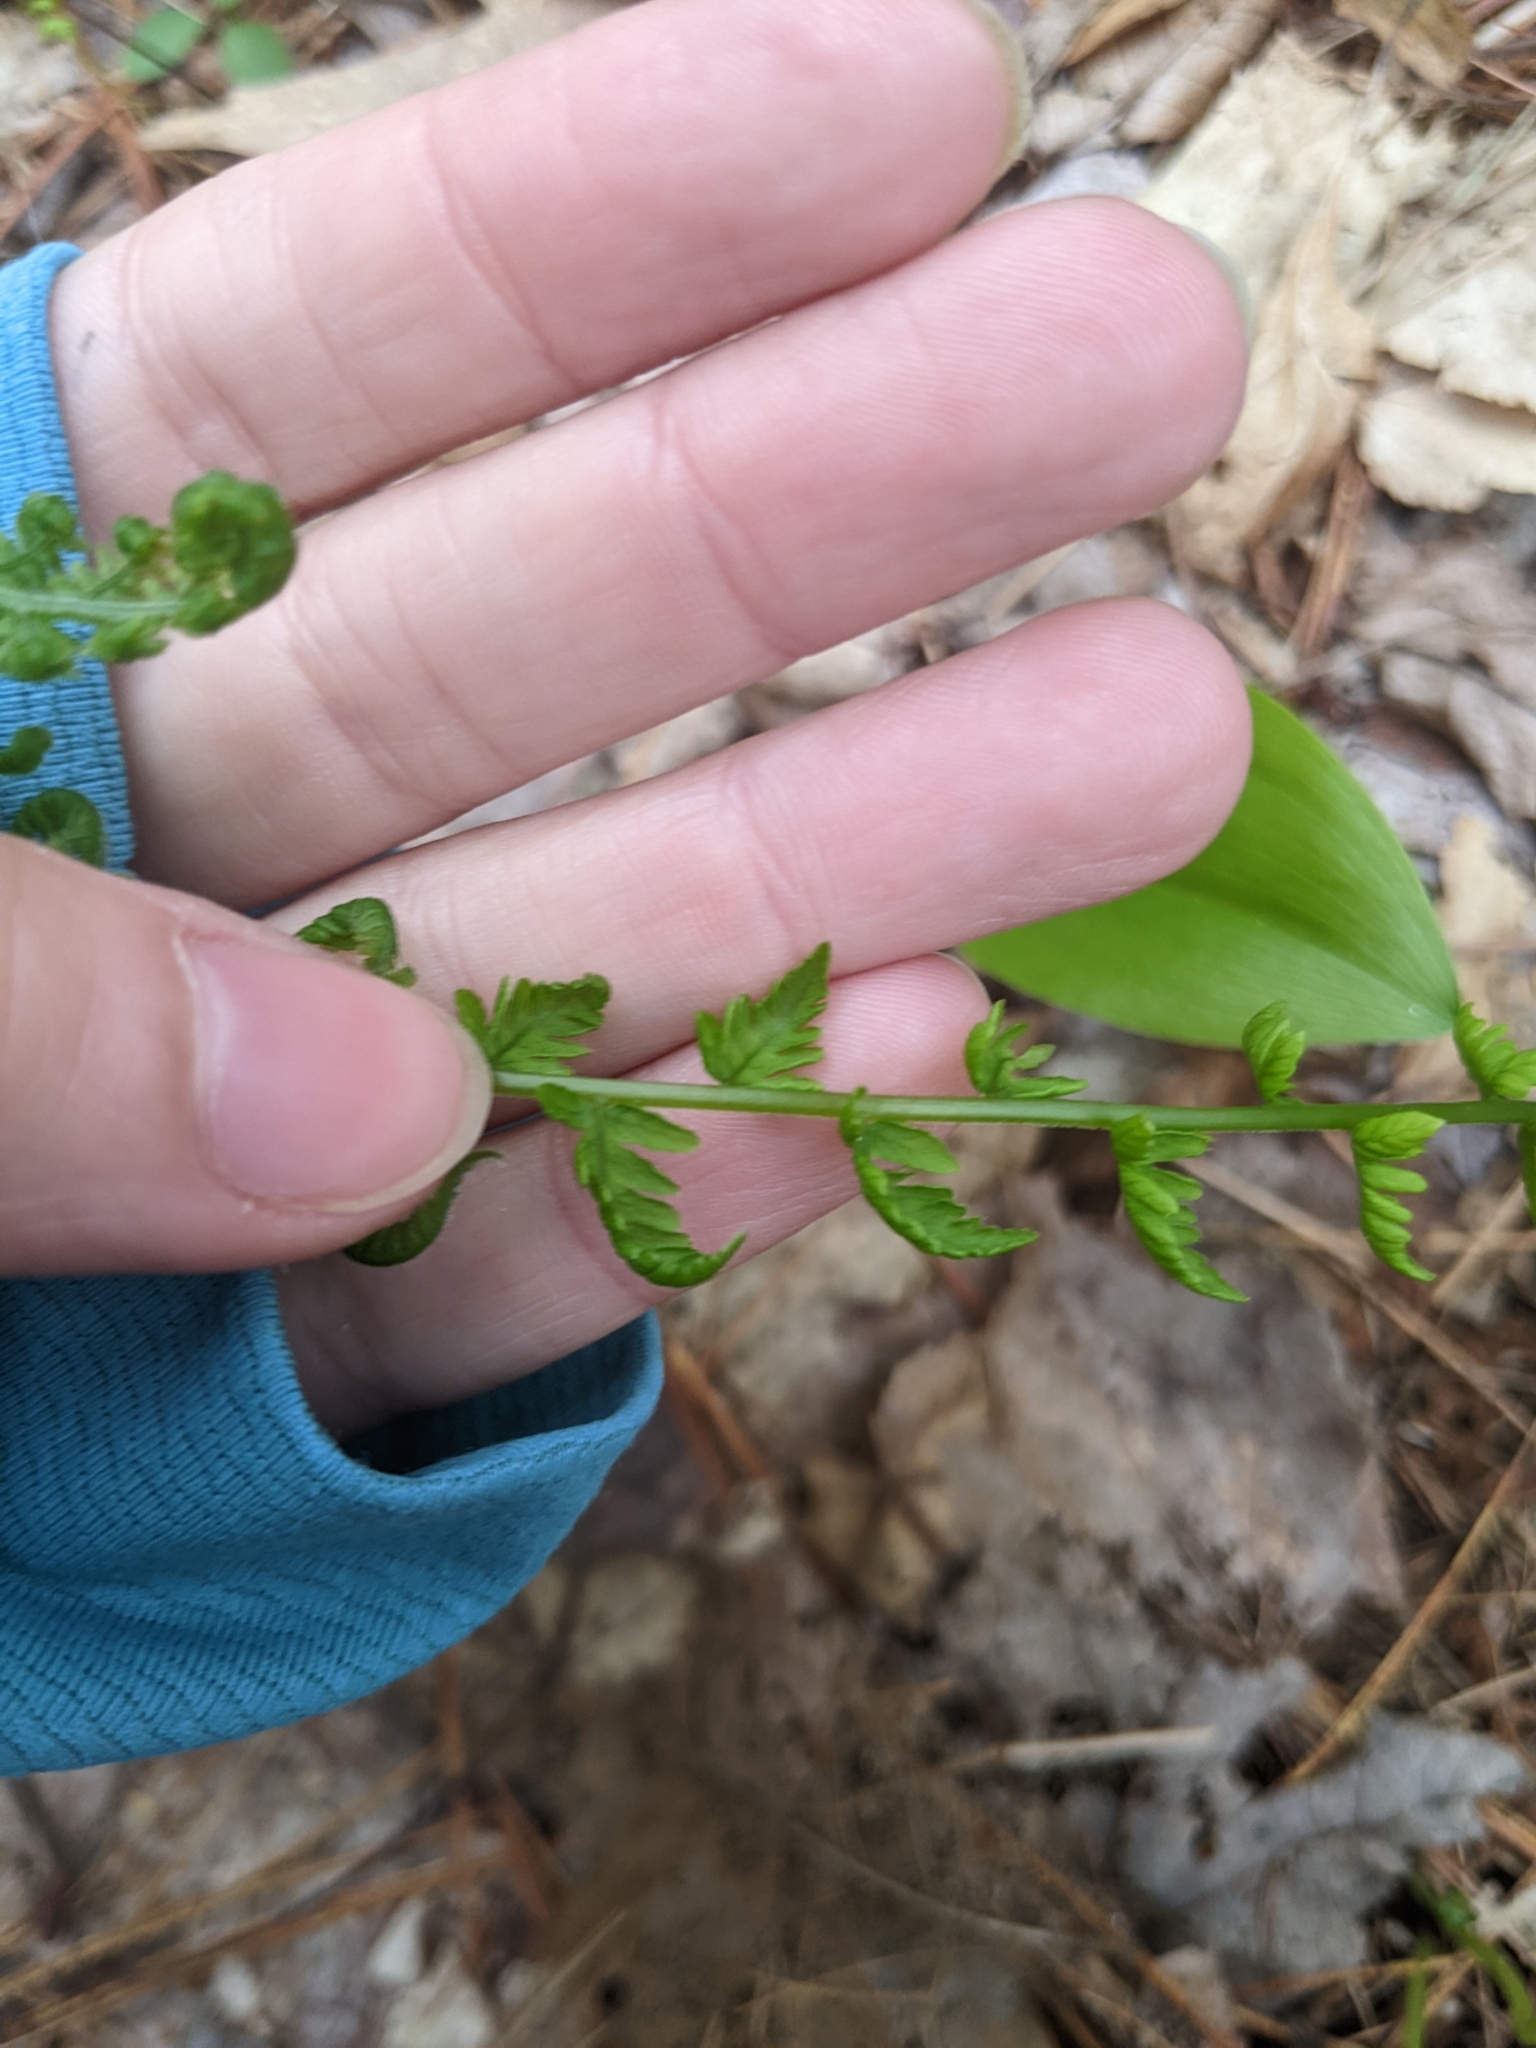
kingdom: Plantae
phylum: Tracheophyta
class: Polypodiopsida
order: Polypodiales
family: Thelypteridaceae
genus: Amauropelta
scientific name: Amauropelta noveboracensis
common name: New york fern
